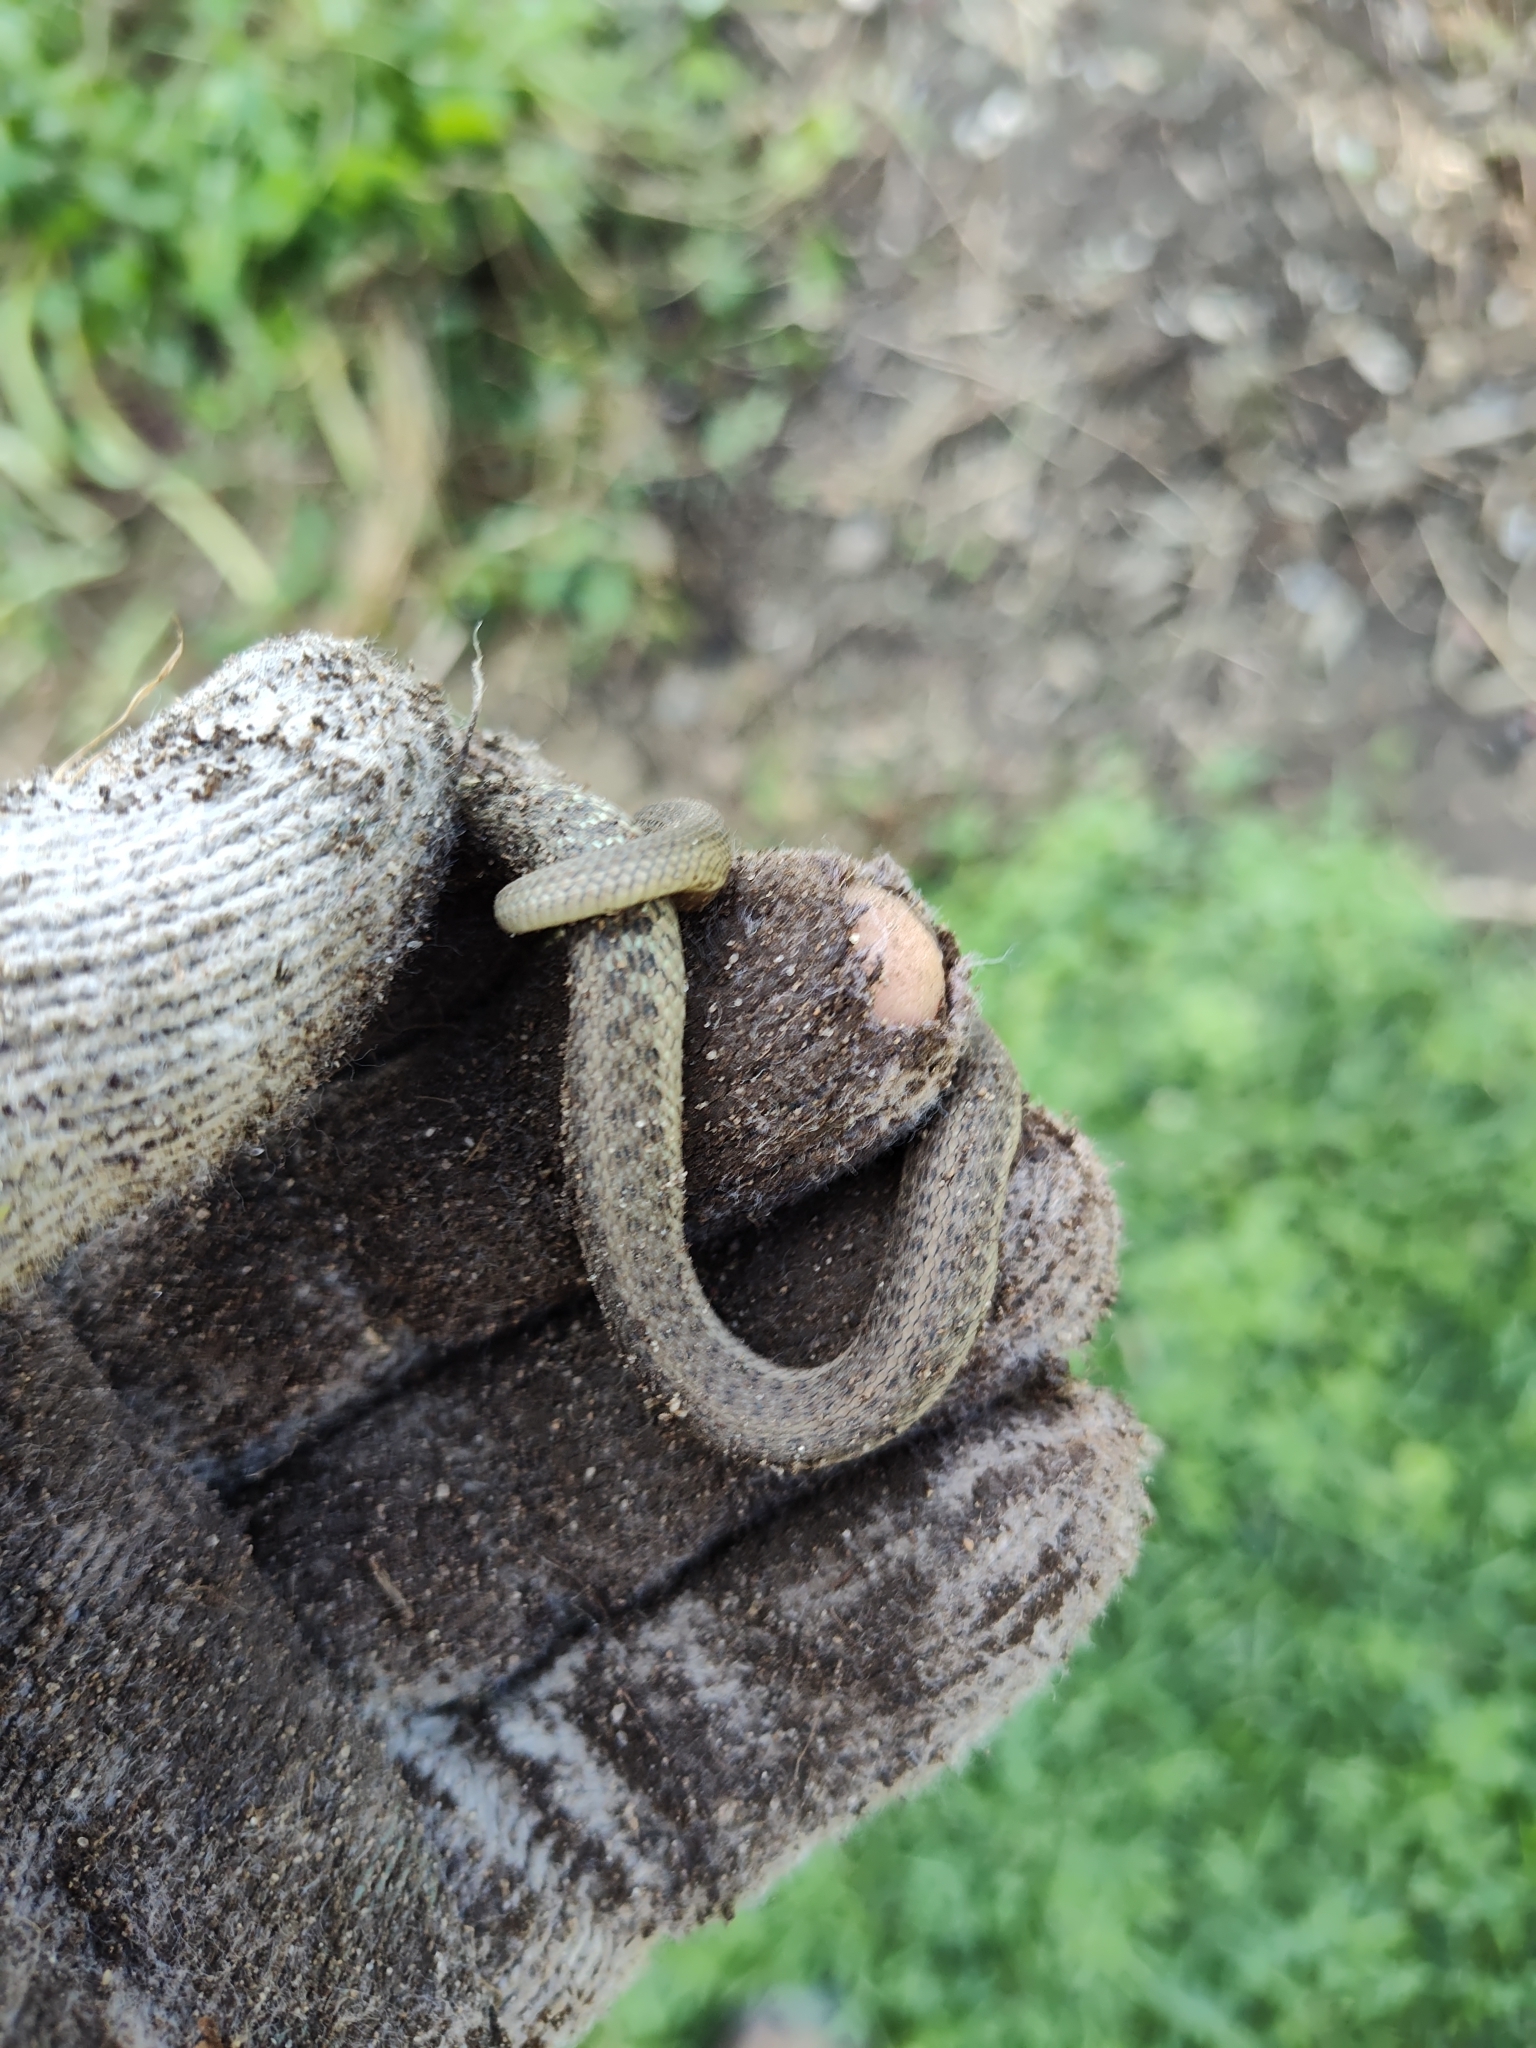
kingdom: Animalia
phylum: Chordata
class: Squamata
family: Colubridae
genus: Thamnophis
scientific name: Thamnophis sirtalis
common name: Common garter snake
